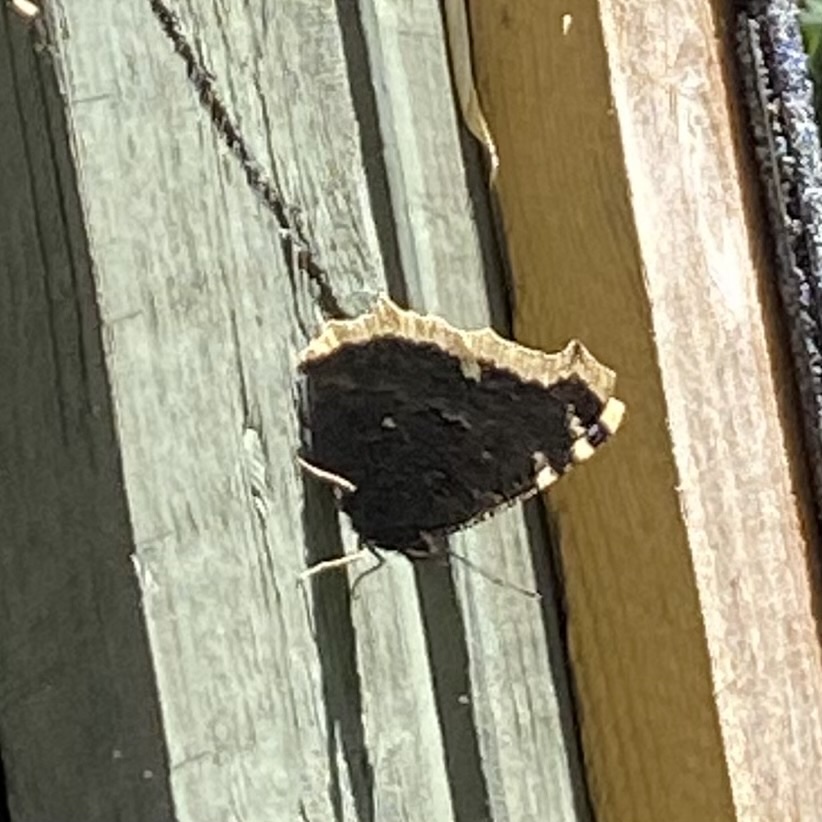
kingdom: Animalia
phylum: Arthropoda
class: Insecta
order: Lepidoptera
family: Nymphalidae
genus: Nymphalis
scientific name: Nymphalis antiopa
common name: Camberwell beauty
